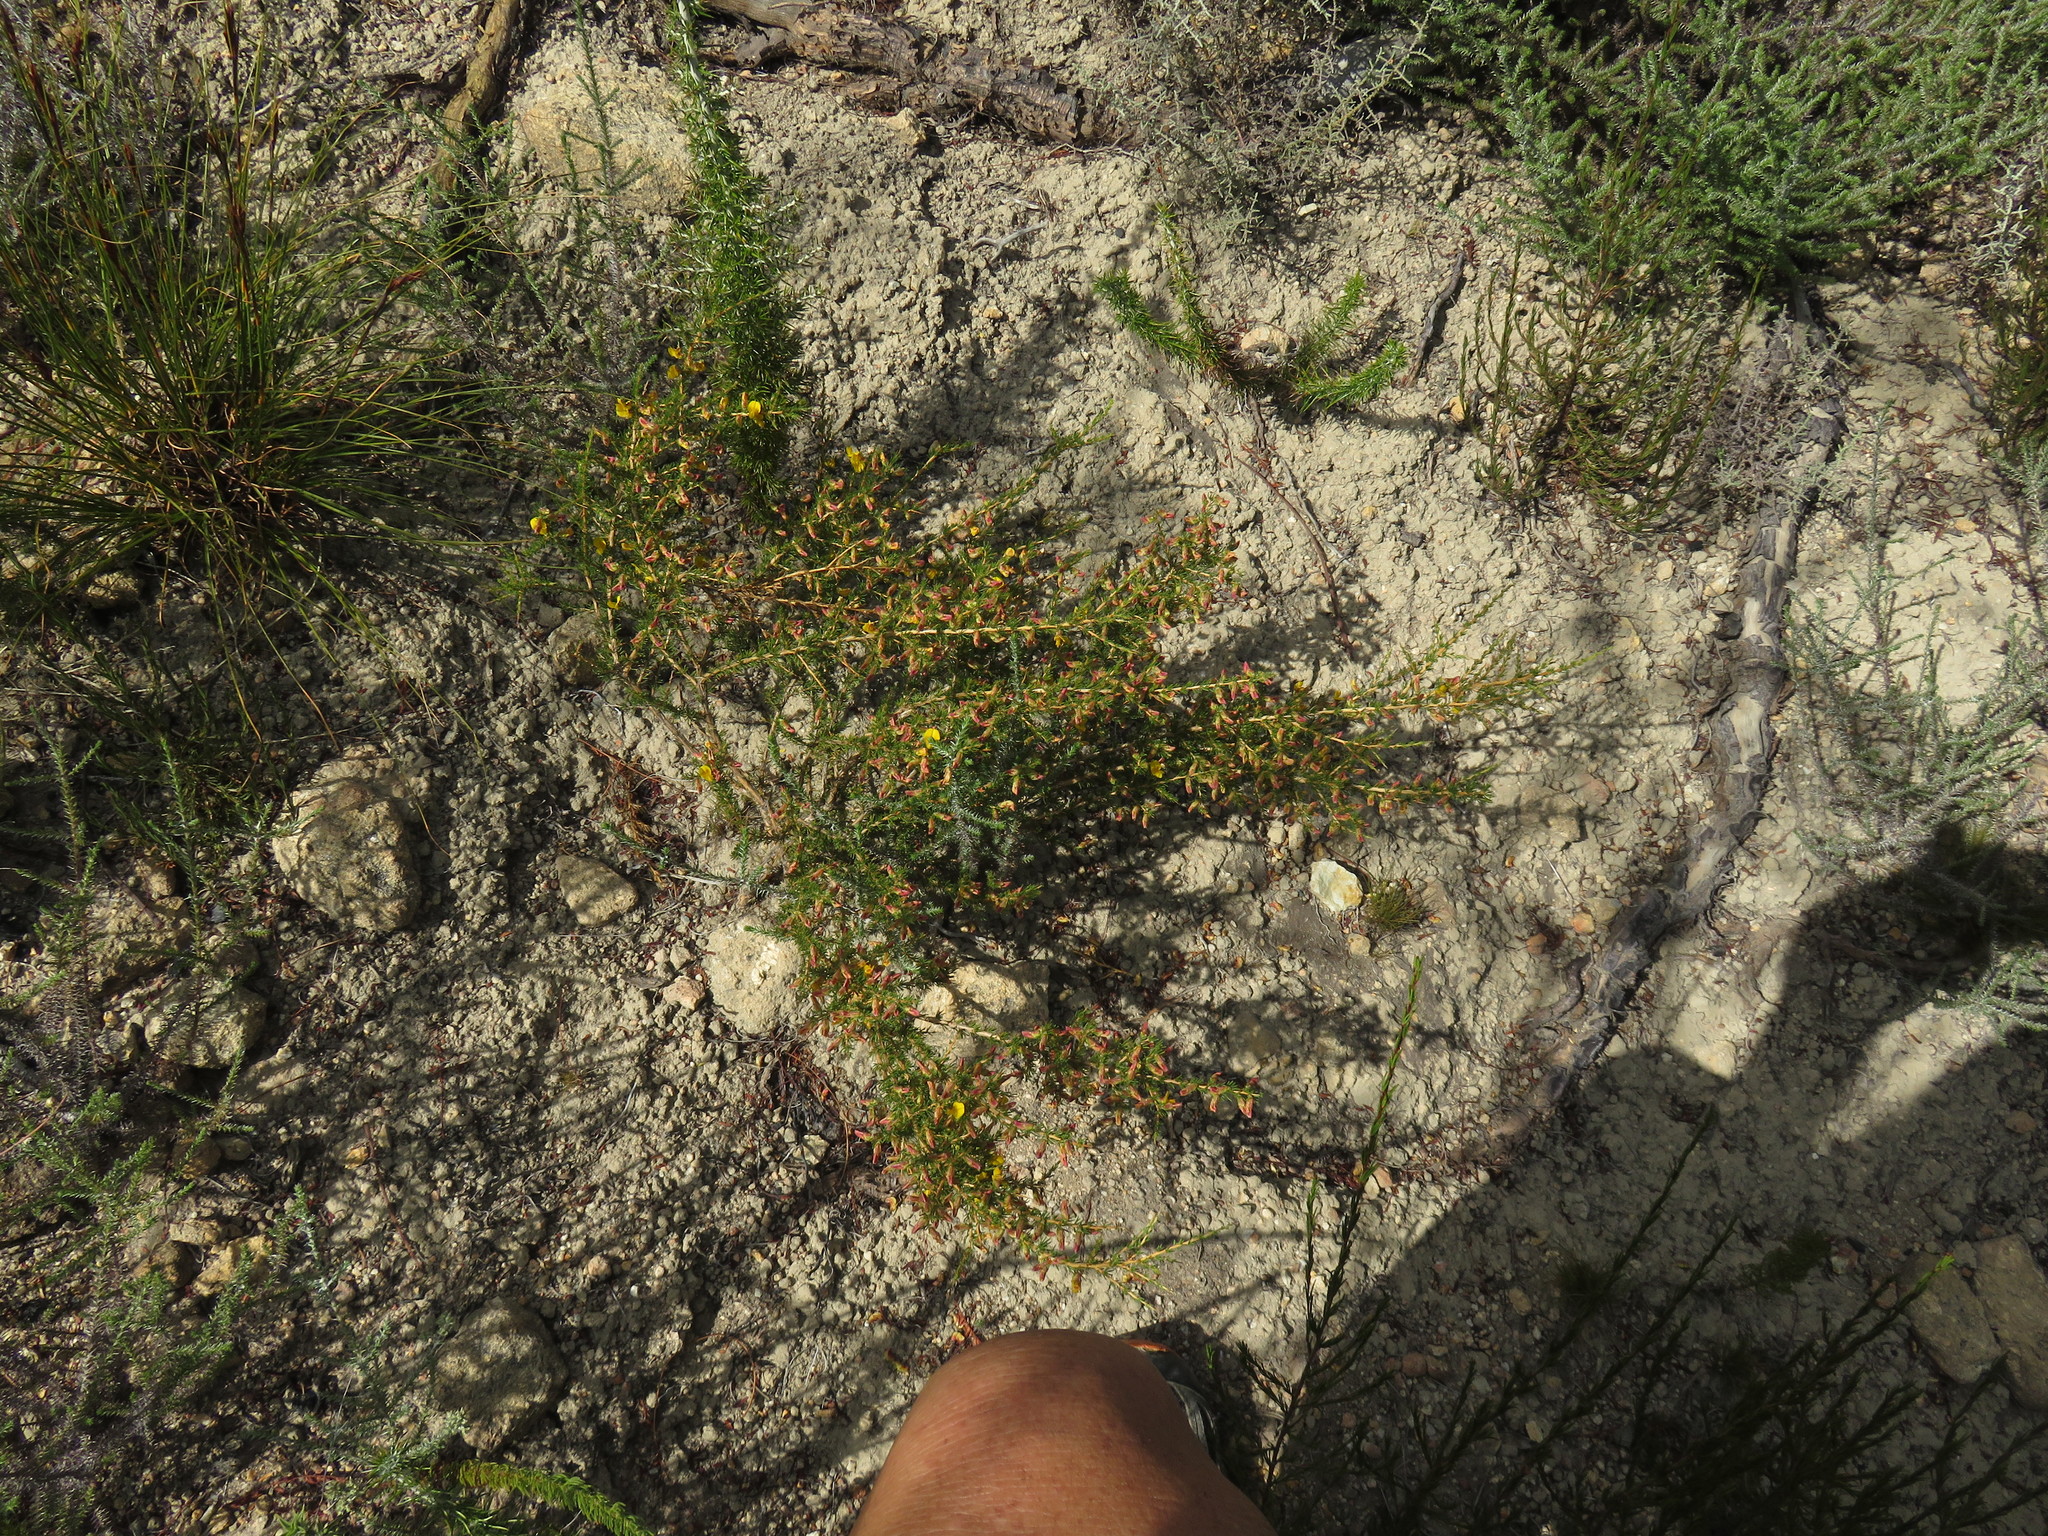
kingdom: Plantae
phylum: Tracheophyta
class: Magnoliopsida
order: Fabales
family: Fabaceae
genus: Aspalathus
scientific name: Aspalathus arida
